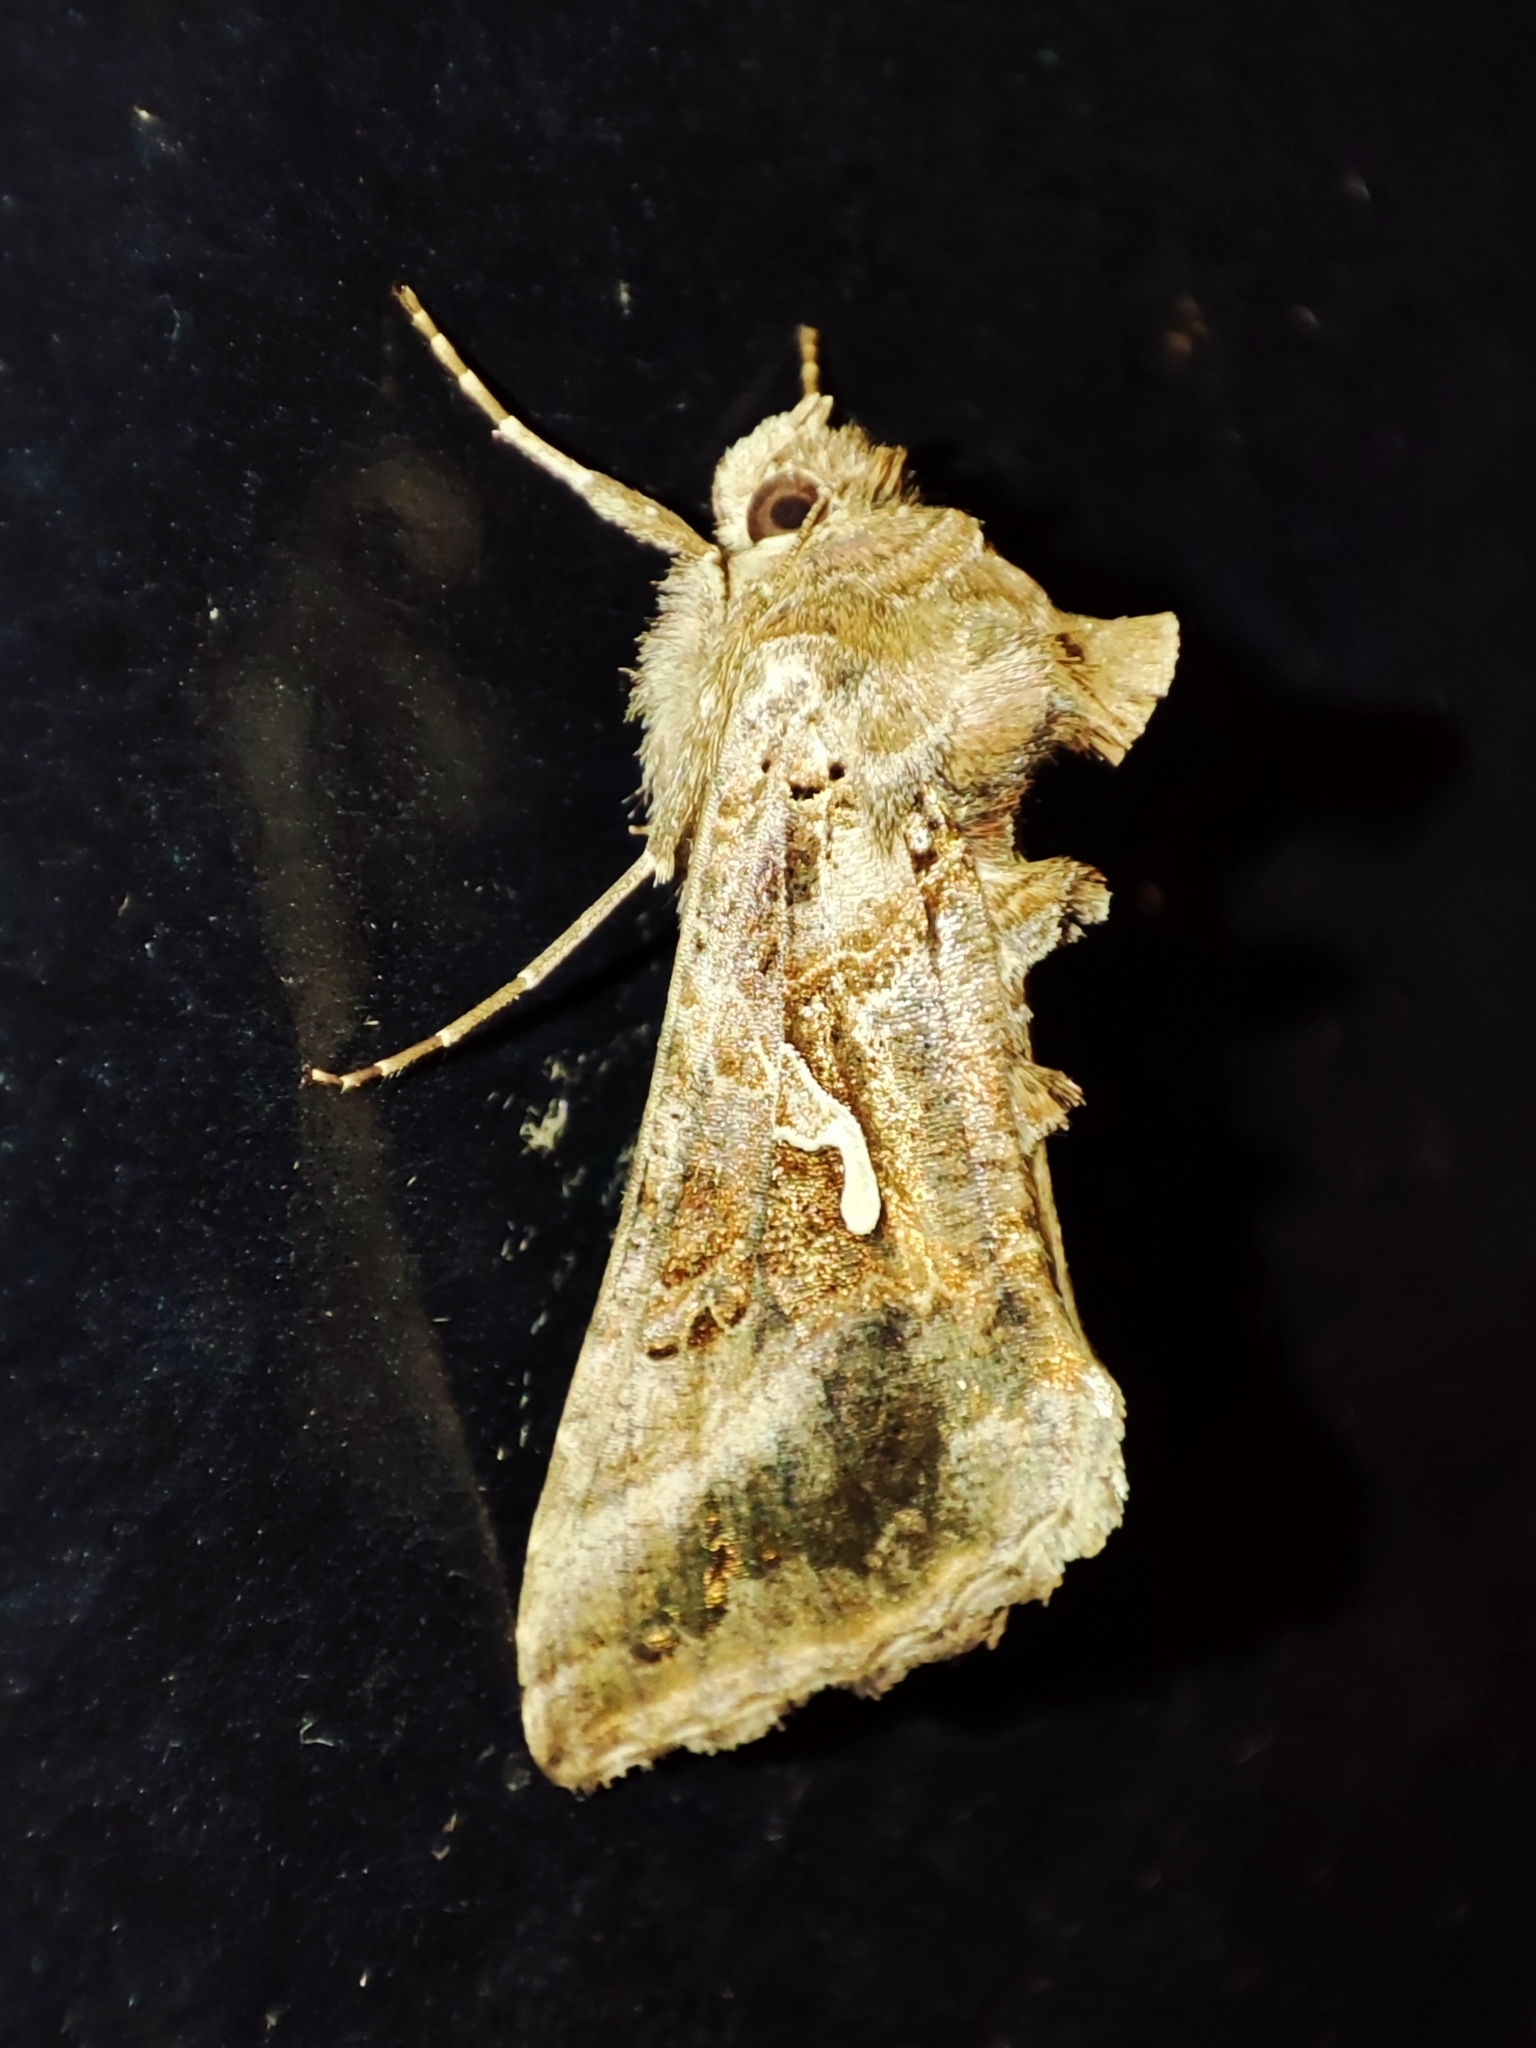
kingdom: Animalia
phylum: Arthropoda
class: Insecta
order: Lepidoptera
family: Noctuidae
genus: Autographa
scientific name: Autographa gamma
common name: Silver y
